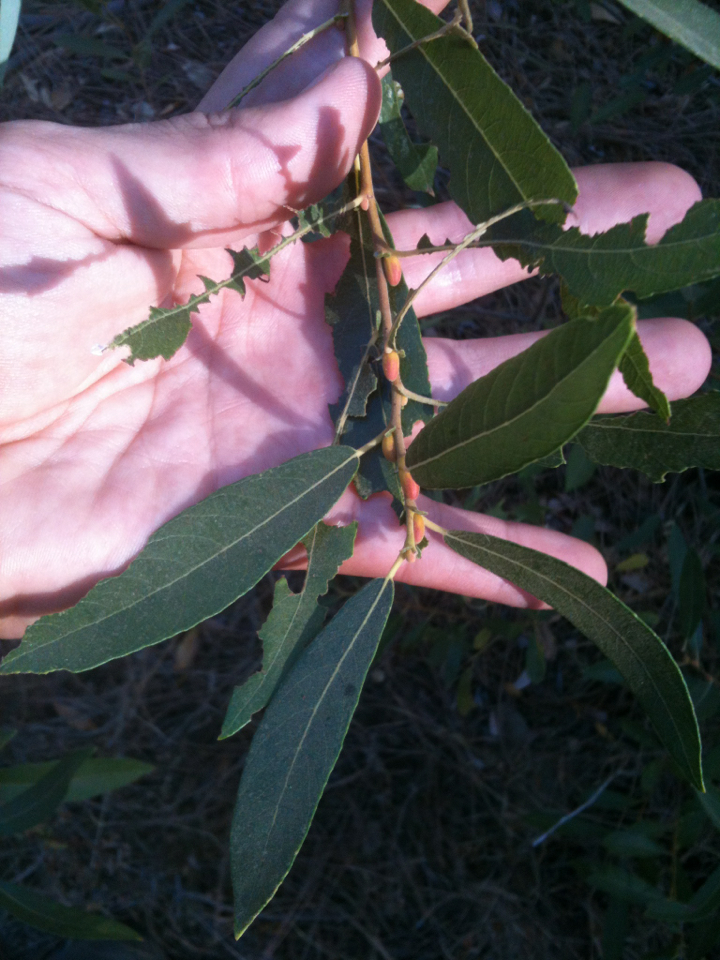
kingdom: Plantae
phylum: Tracheophyta
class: Magnoliopsida
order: Malpighiales
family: Salicaceae
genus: Salix
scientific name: Salix lasiolepis
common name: Arroyo willow
